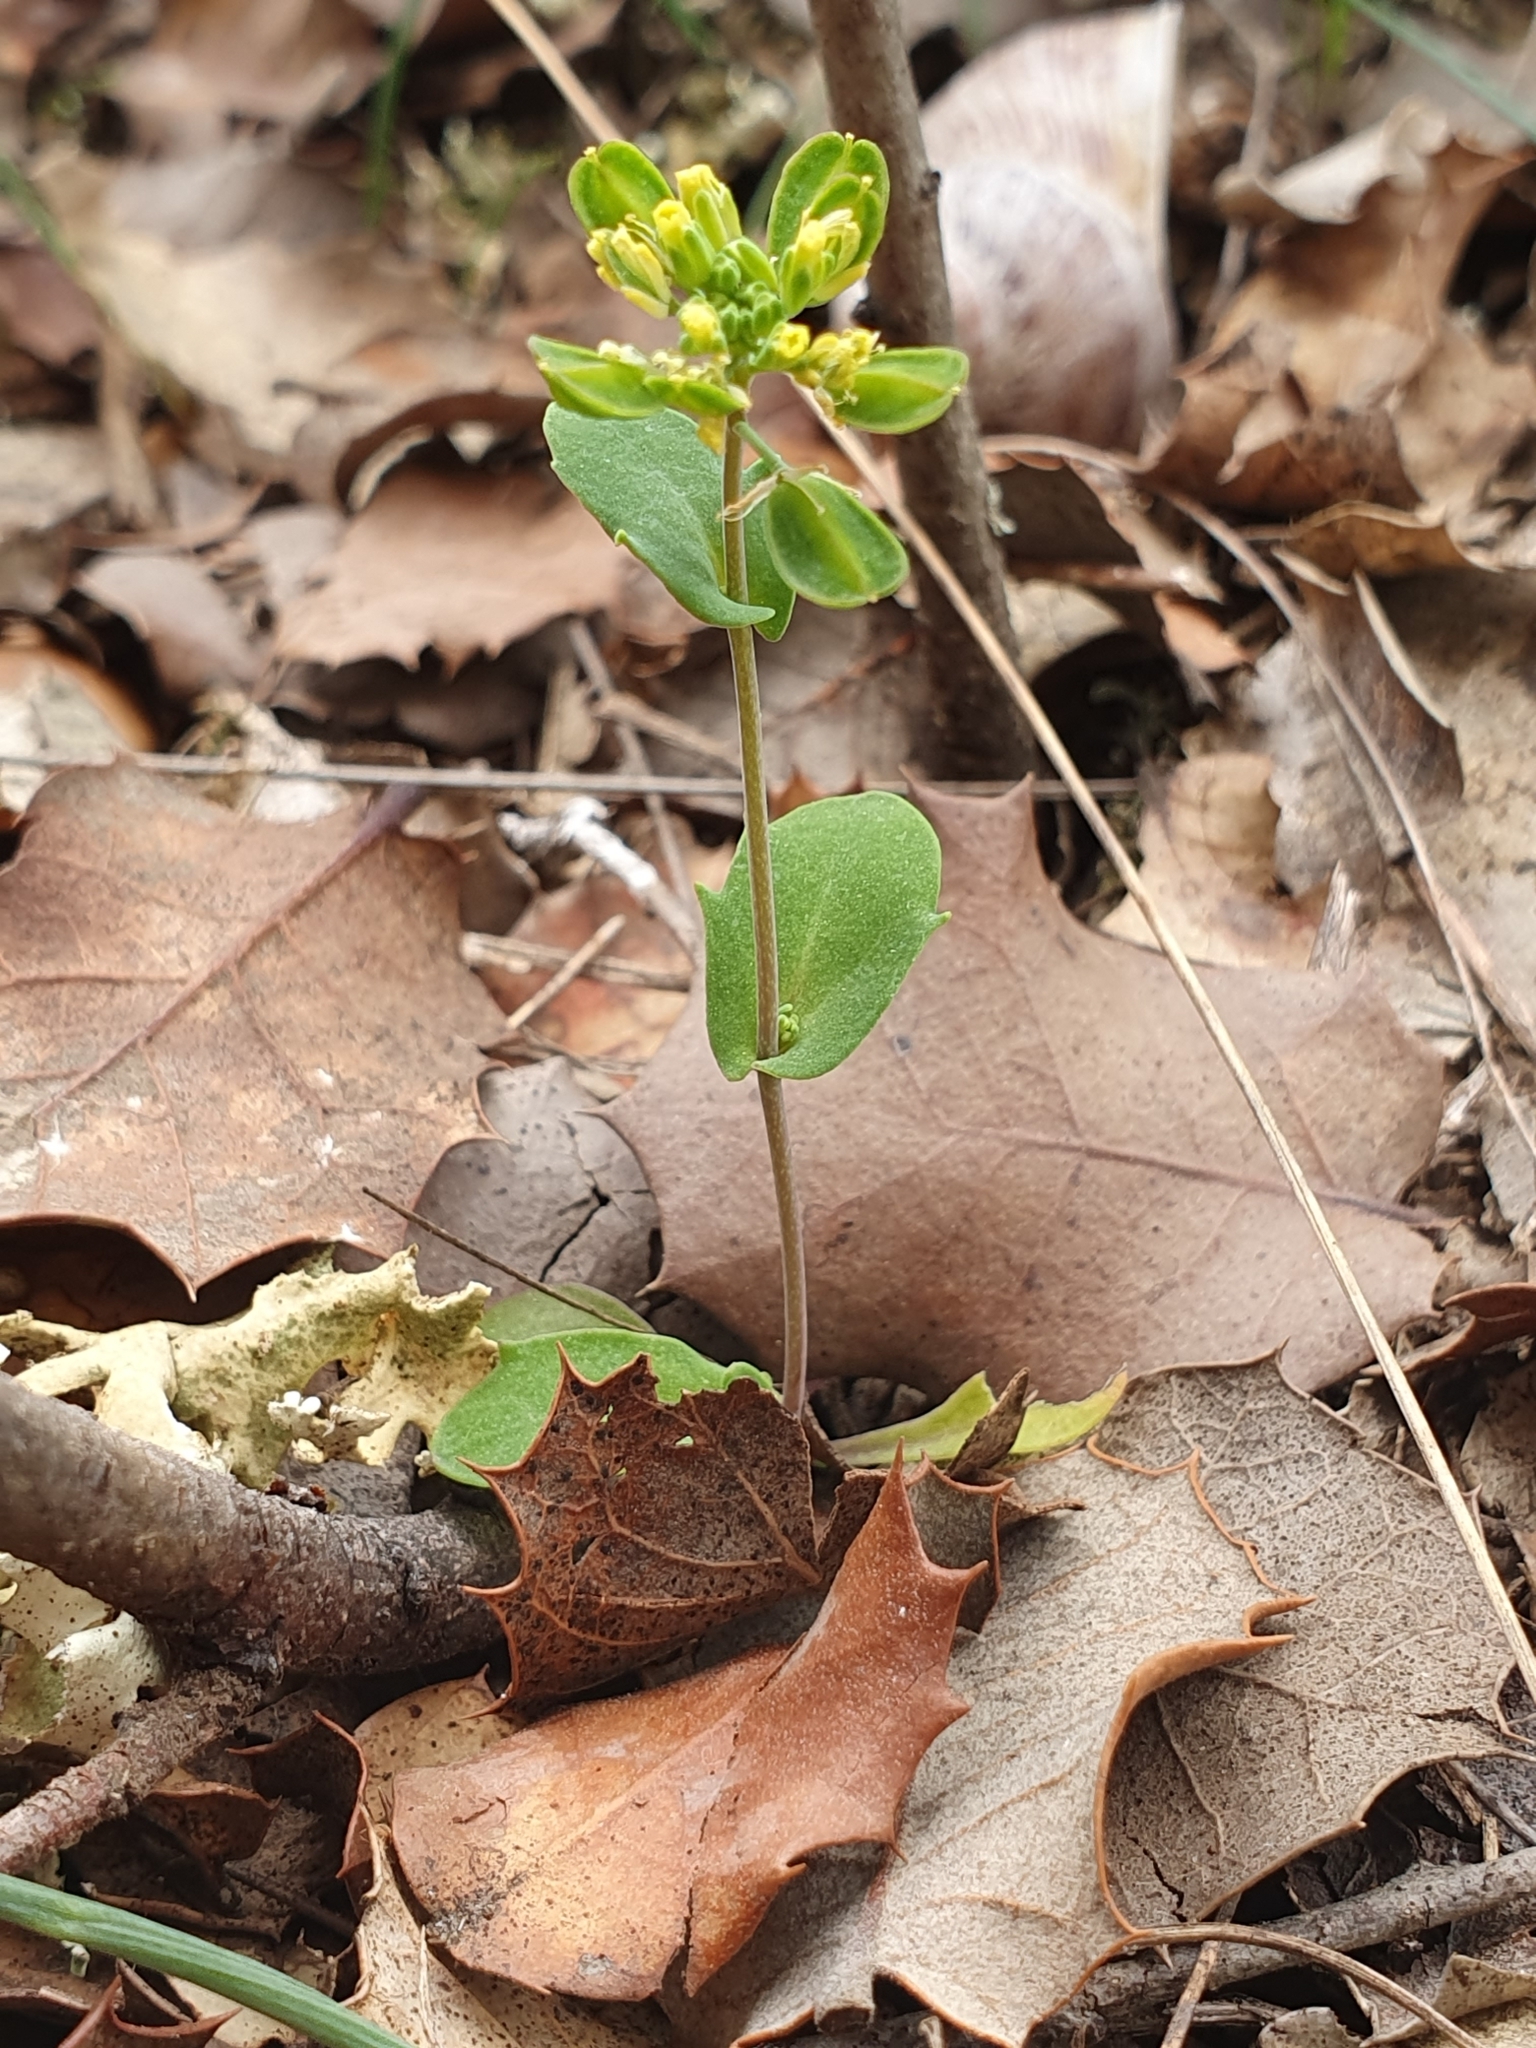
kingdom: Plantae
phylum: Tracheophyta
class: Magnoliopsida
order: Brassicales
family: Brassicaceae
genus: Bivonaea
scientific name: Bivonaea lutea
